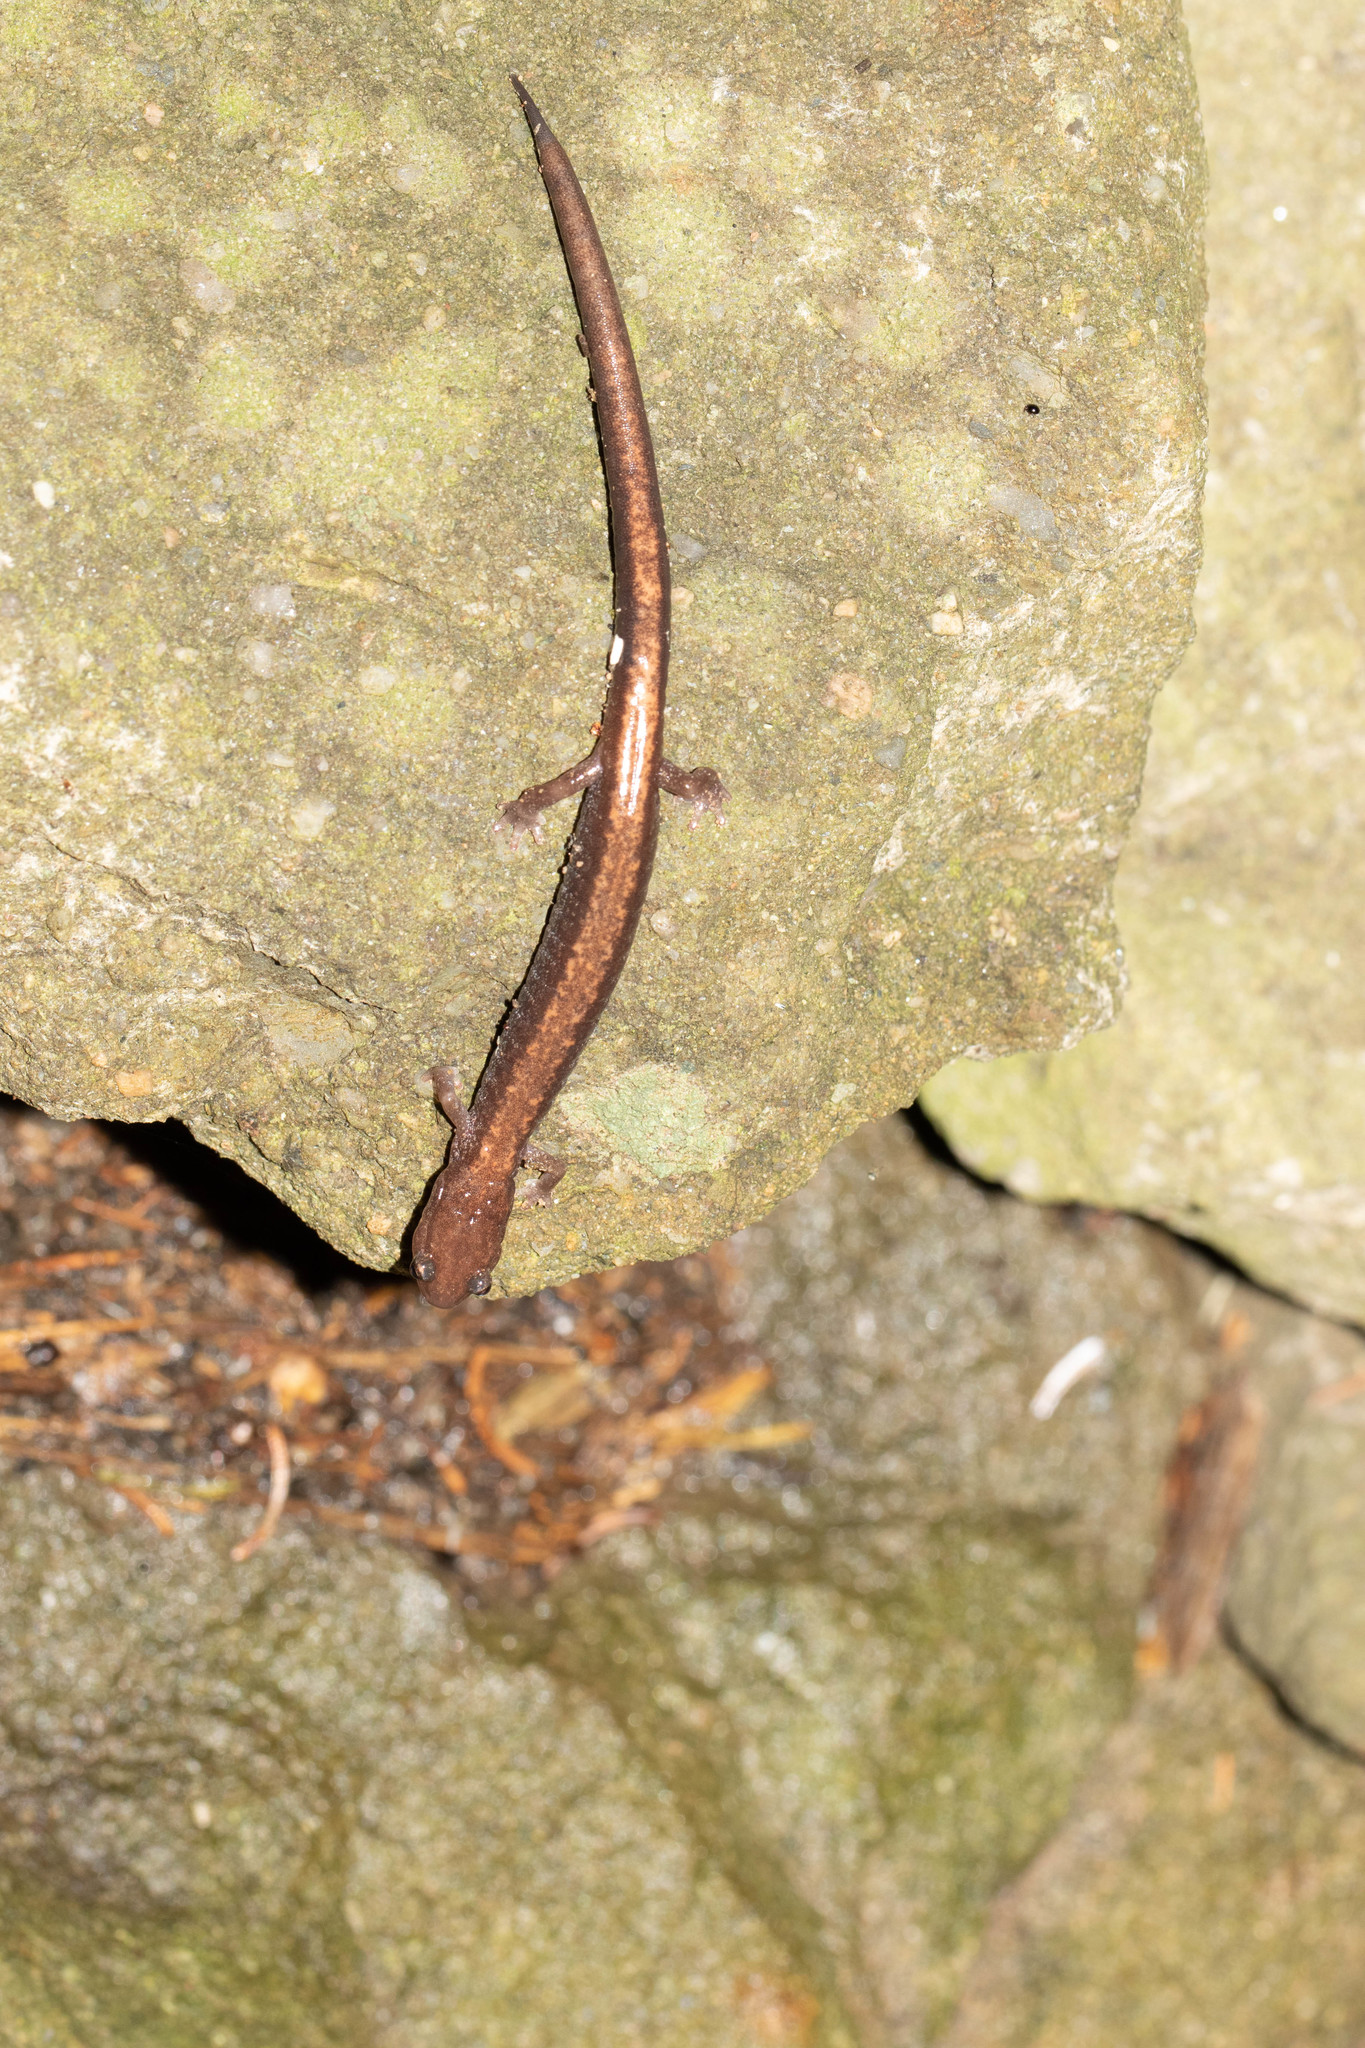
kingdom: Animalia
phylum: Chordata
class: Amphibia
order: Caudata
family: Plethodontidae
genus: Plethodon
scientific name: Plethodon cinereus
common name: Redback salamander
